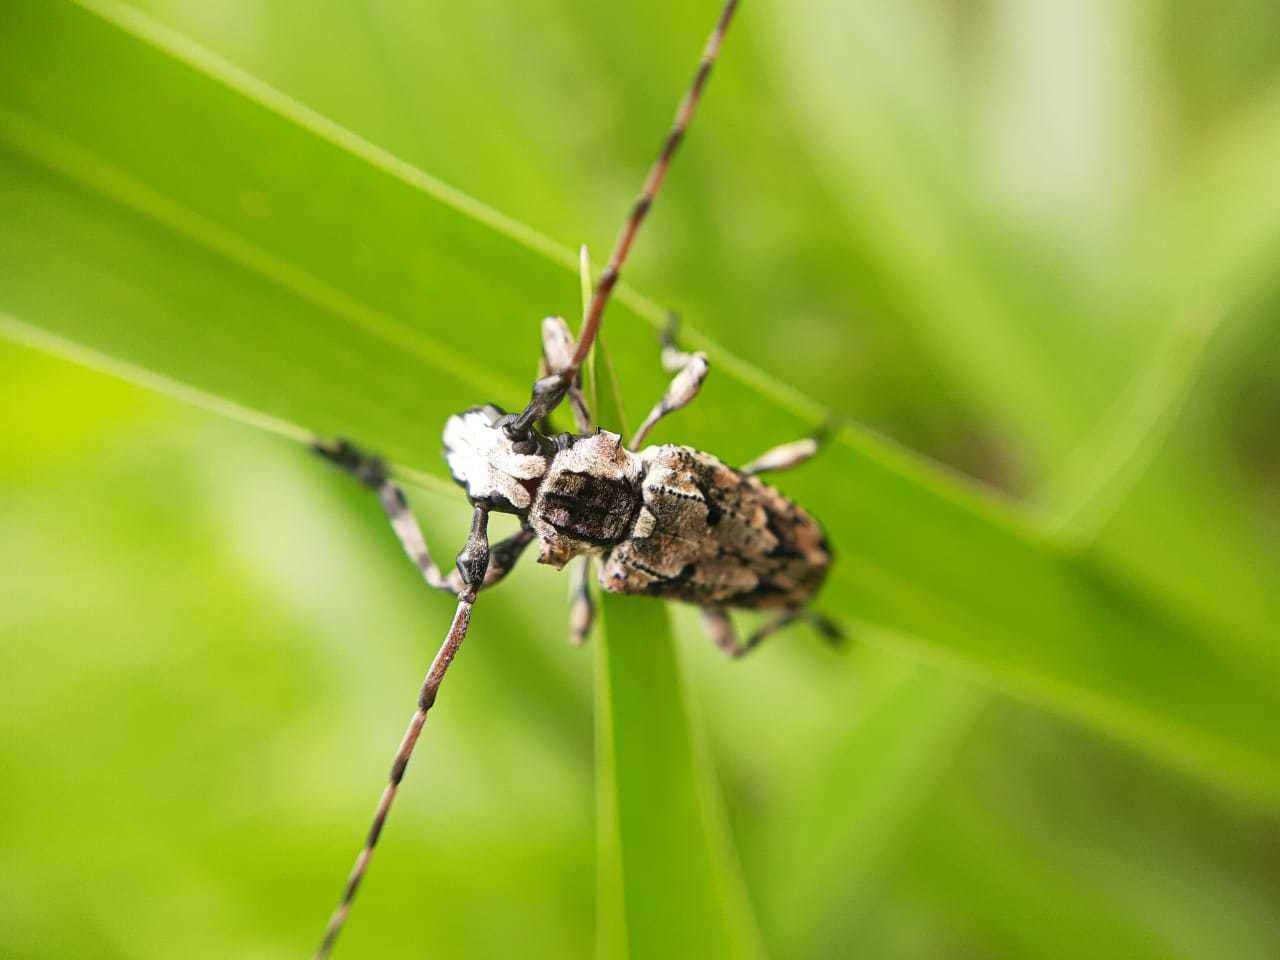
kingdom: Animalia
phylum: Arthropoda
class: Insecta
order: Coleoptera
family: Cerambycidae
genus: Steirastoma
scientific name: Steirastoma stellio
